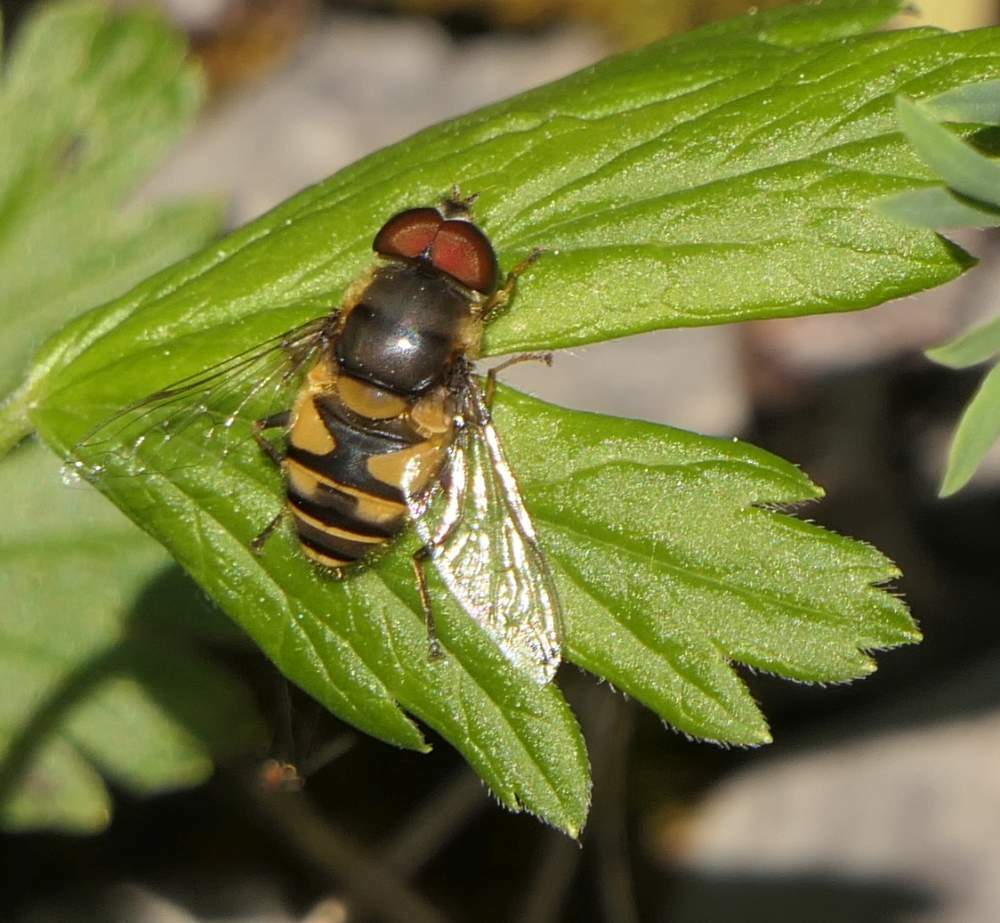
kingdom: Animalia
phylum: Arthropoda
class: Insecta
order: Diptera
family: Syrphidae
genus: Eristalis
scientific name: Eristalis transversa
